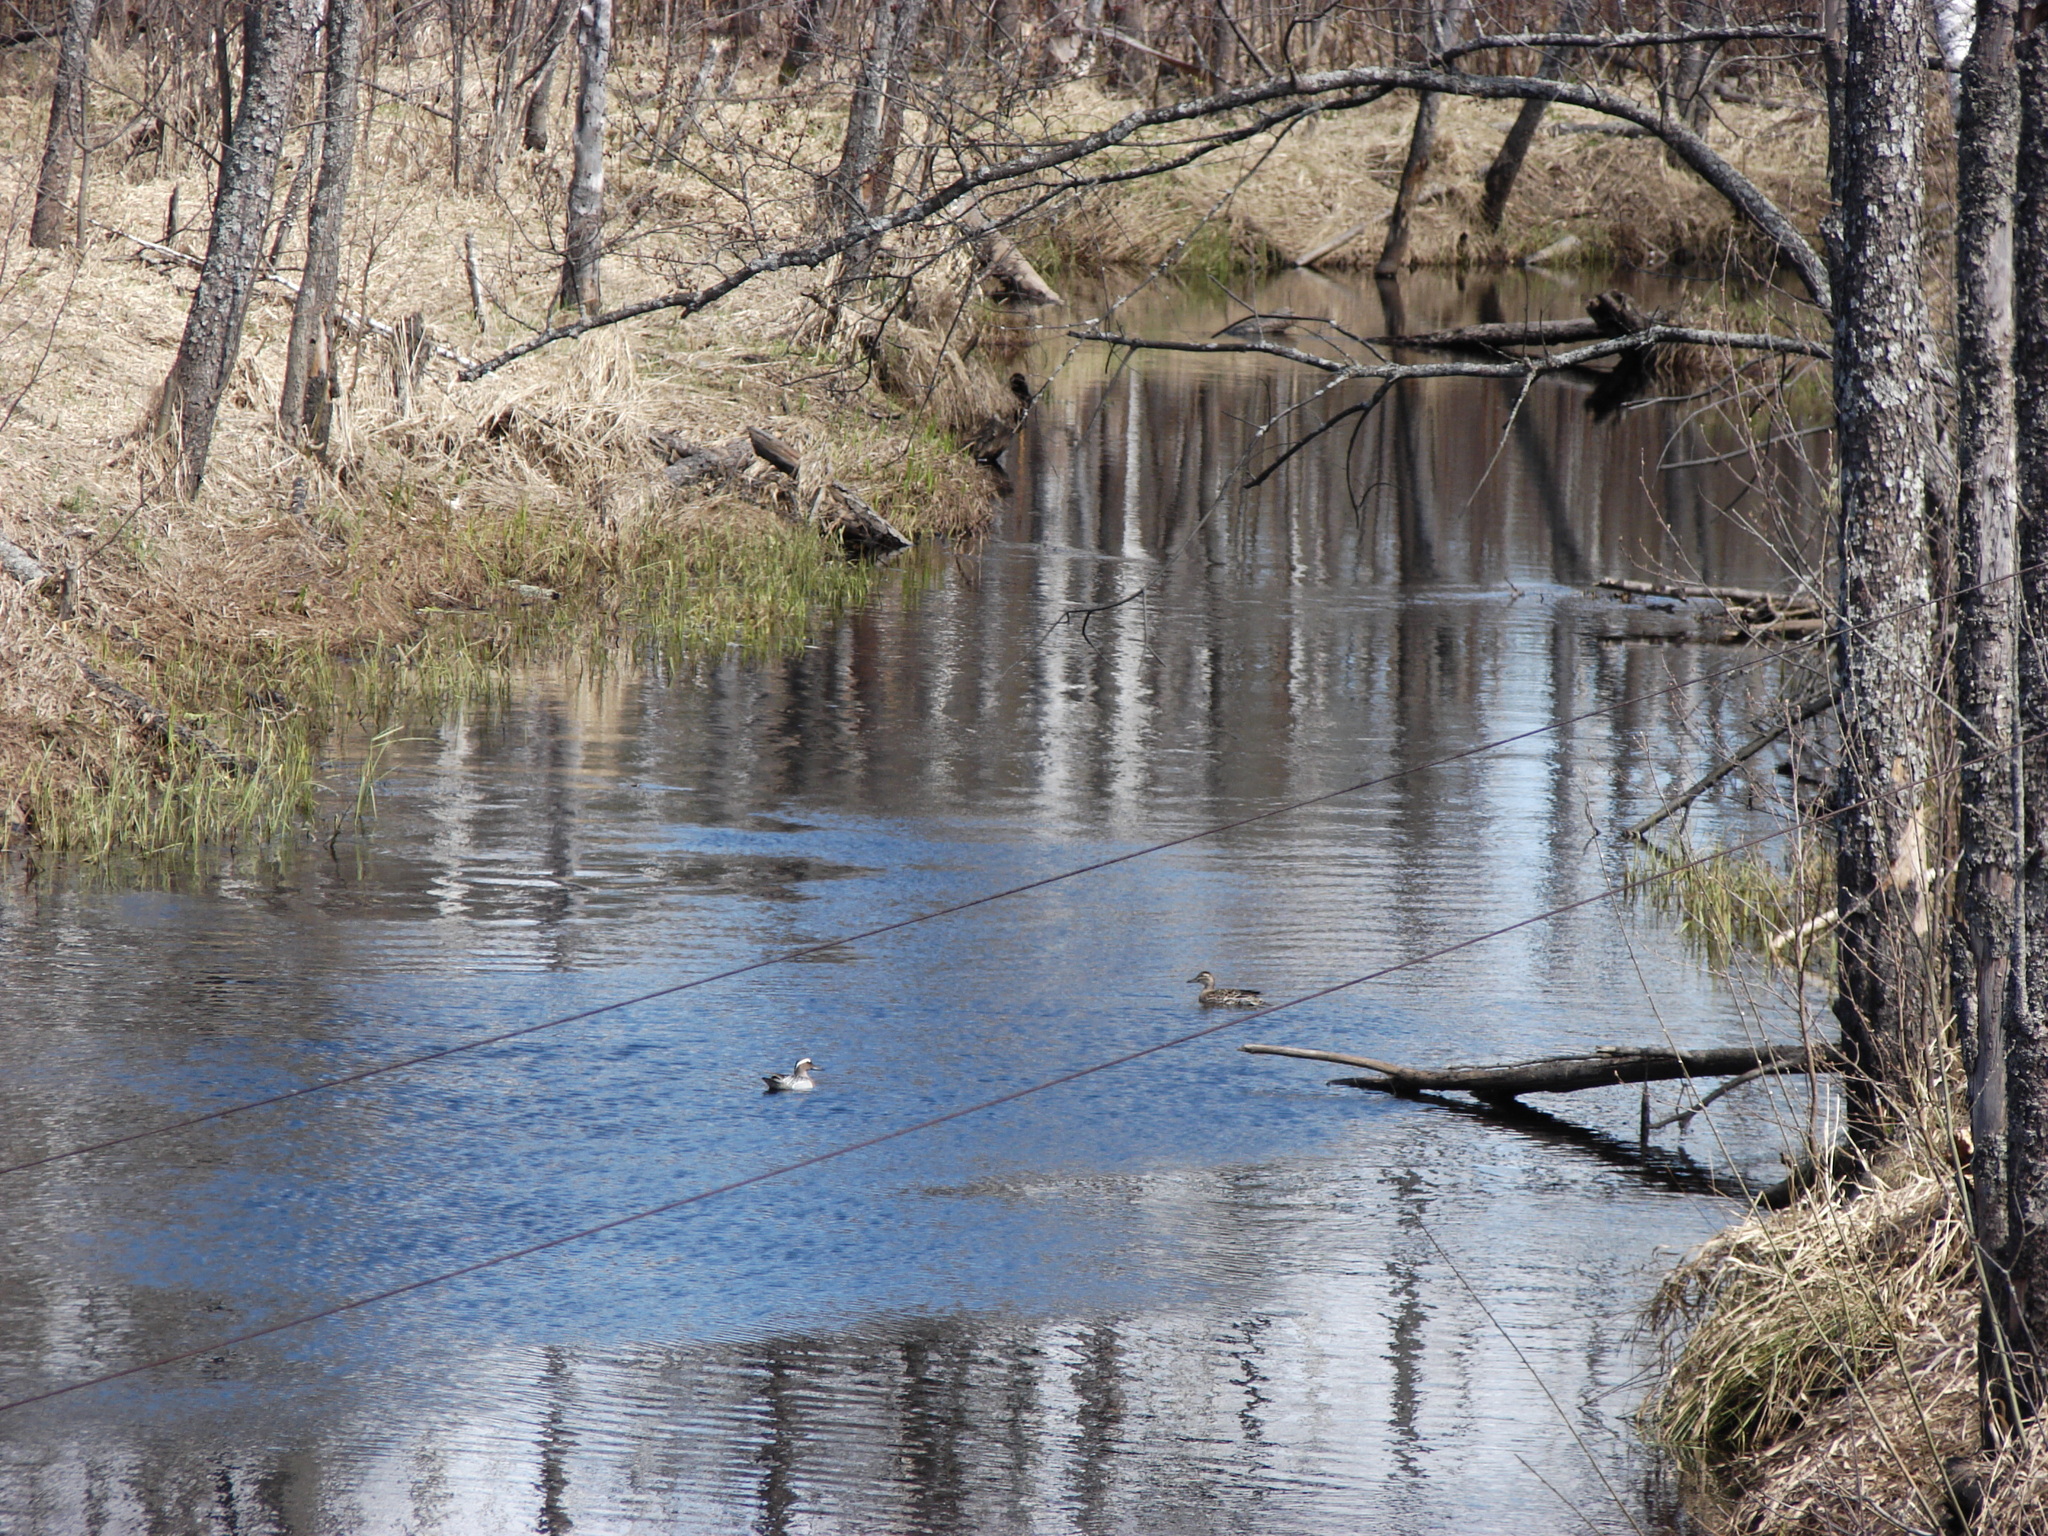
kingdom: Animalia
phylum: Chordata
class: Aves
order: Anseriformes
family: Anatidae
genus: Spatula
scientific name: Spatula querquedula
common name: Garganey
